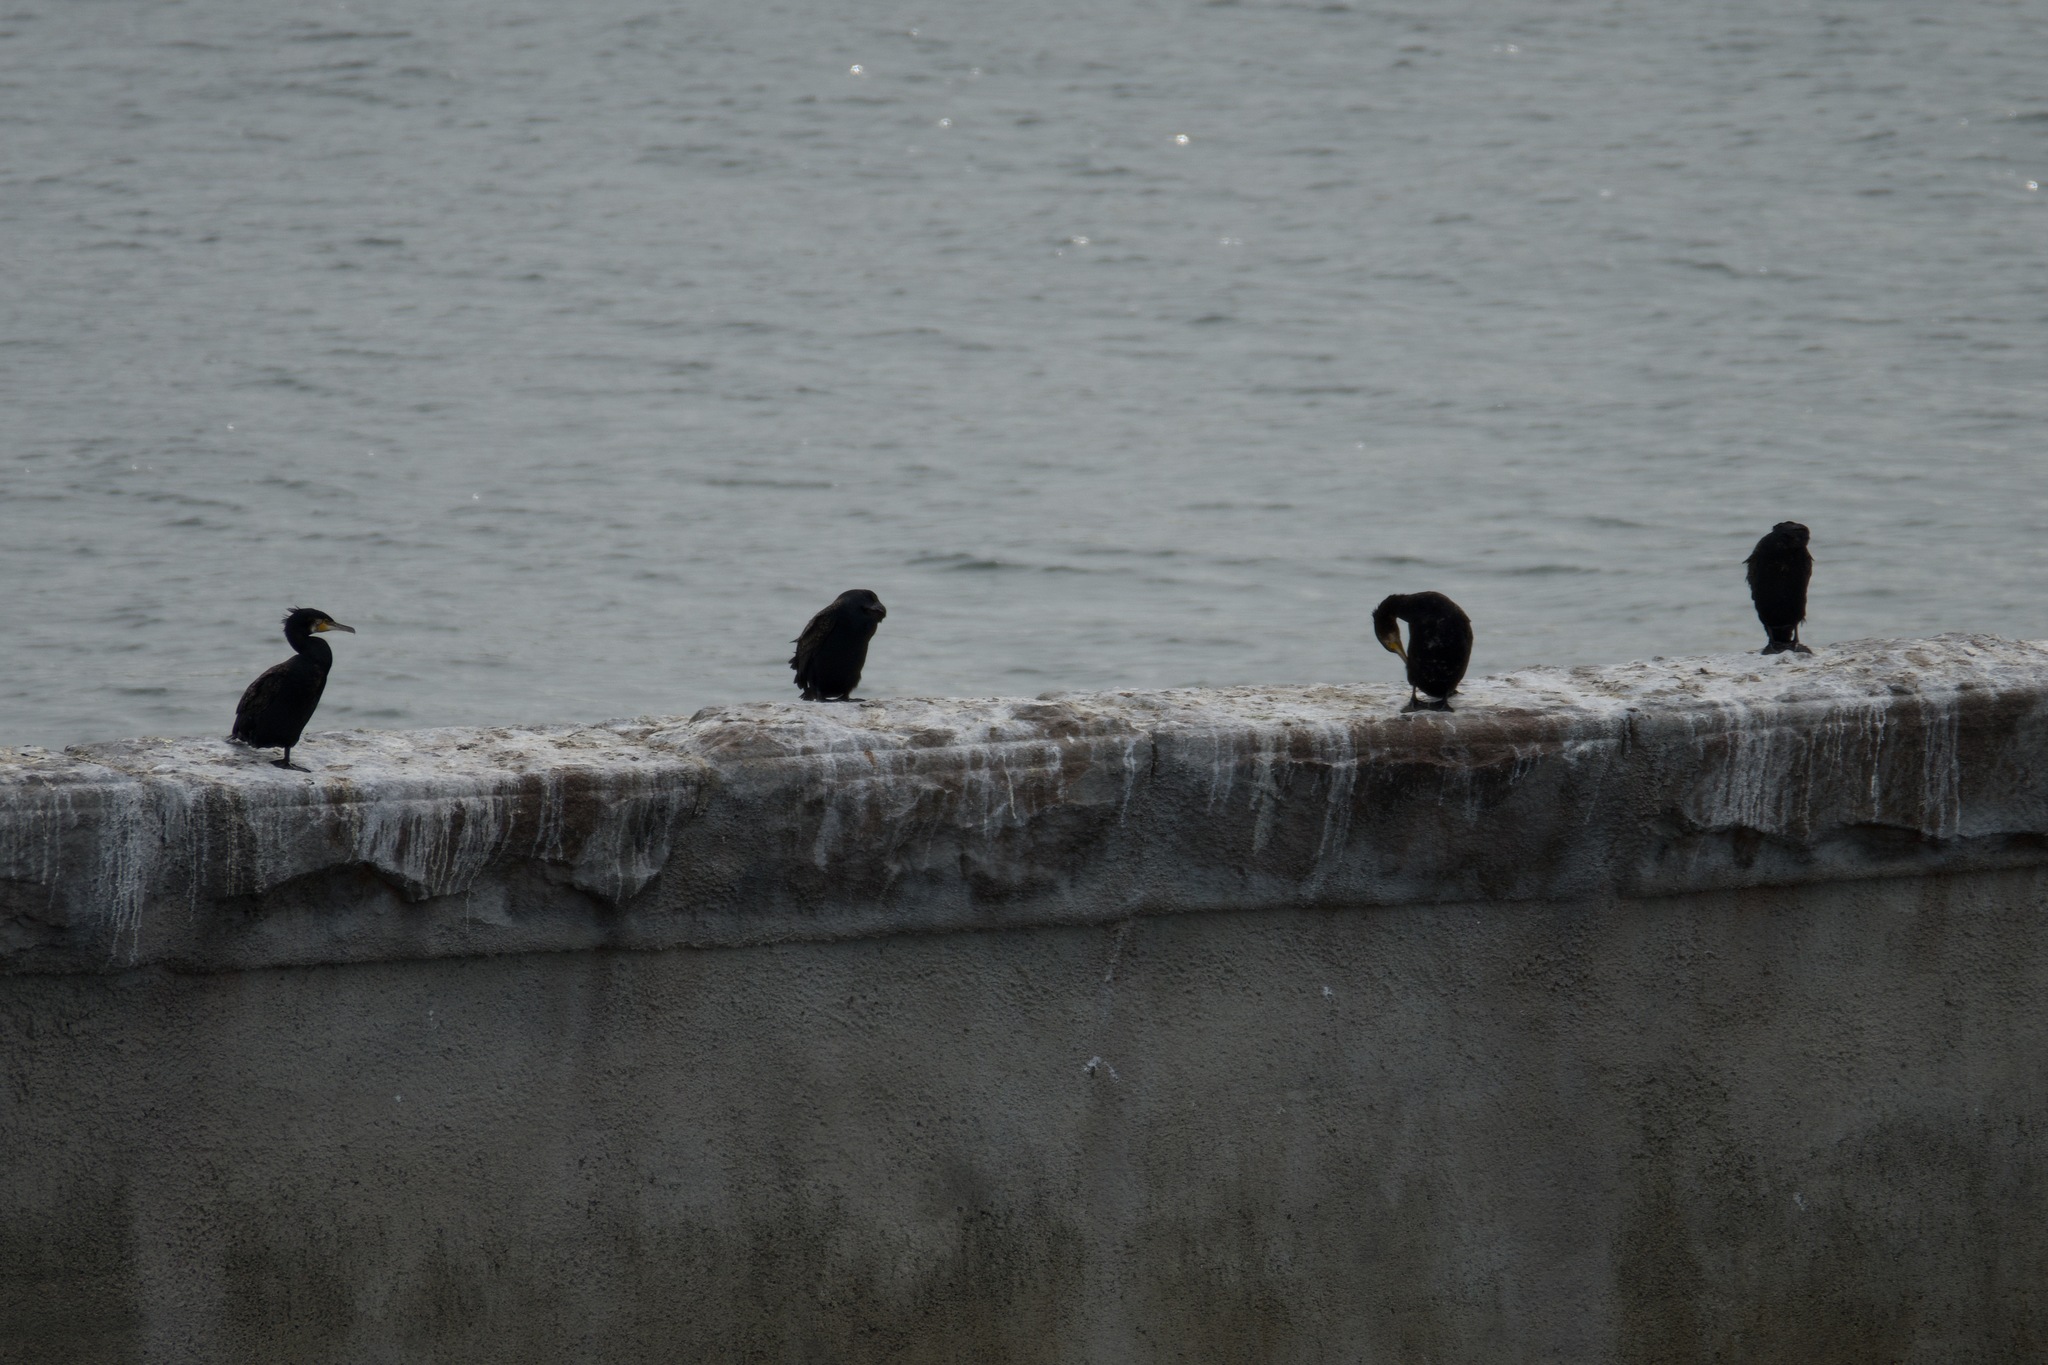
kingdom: Animalia
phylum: Chordata
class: Aves
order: Suliformes
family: Phalacrocoracidae
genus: Phalacrocorax
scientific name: Phalacrocorax carbo
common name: Great cormorant
